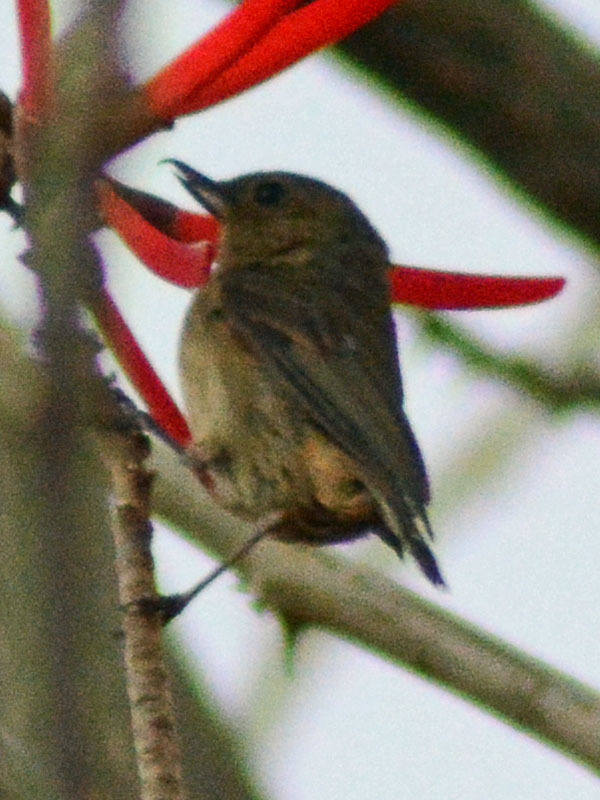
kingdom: Animalia
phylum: Chordata
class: Aves
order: Passeriformes
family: Thraupidae
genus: Diglossa
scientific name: Diglossa baritula
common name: Cinnamon-bellied flowerpiercer
